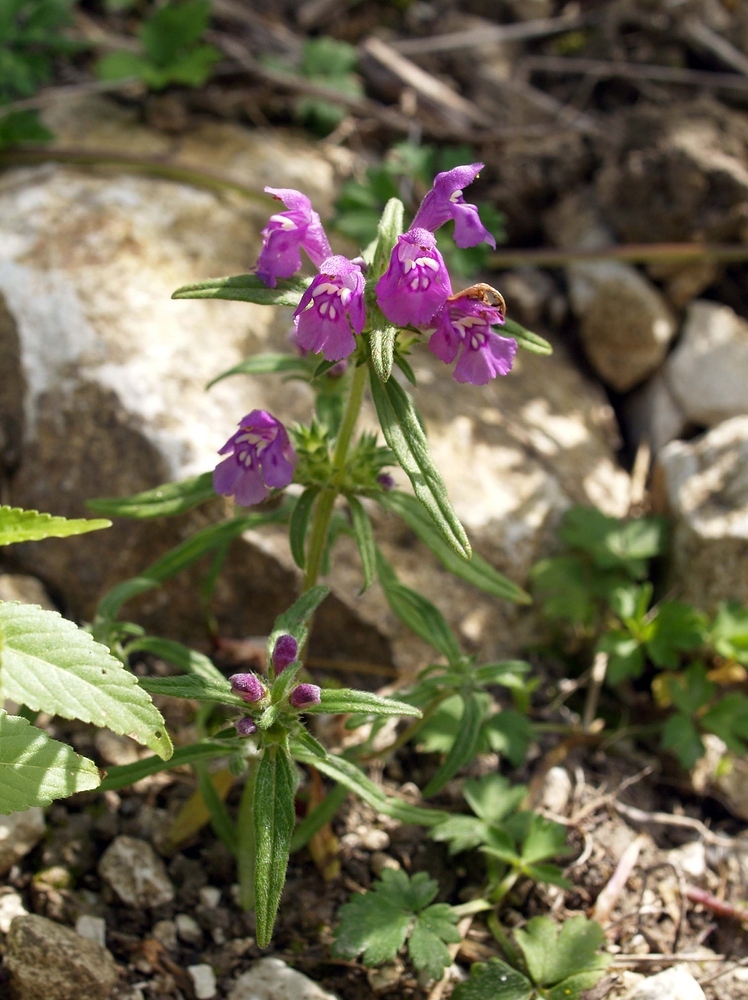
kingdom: Plantae
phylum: Tracheophyta
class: Magnoliopsida
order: Lamiales
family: Lamiaceae
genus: Galeopsis
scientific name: Galeopsis angustifolia
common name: Red hemp-nettle
